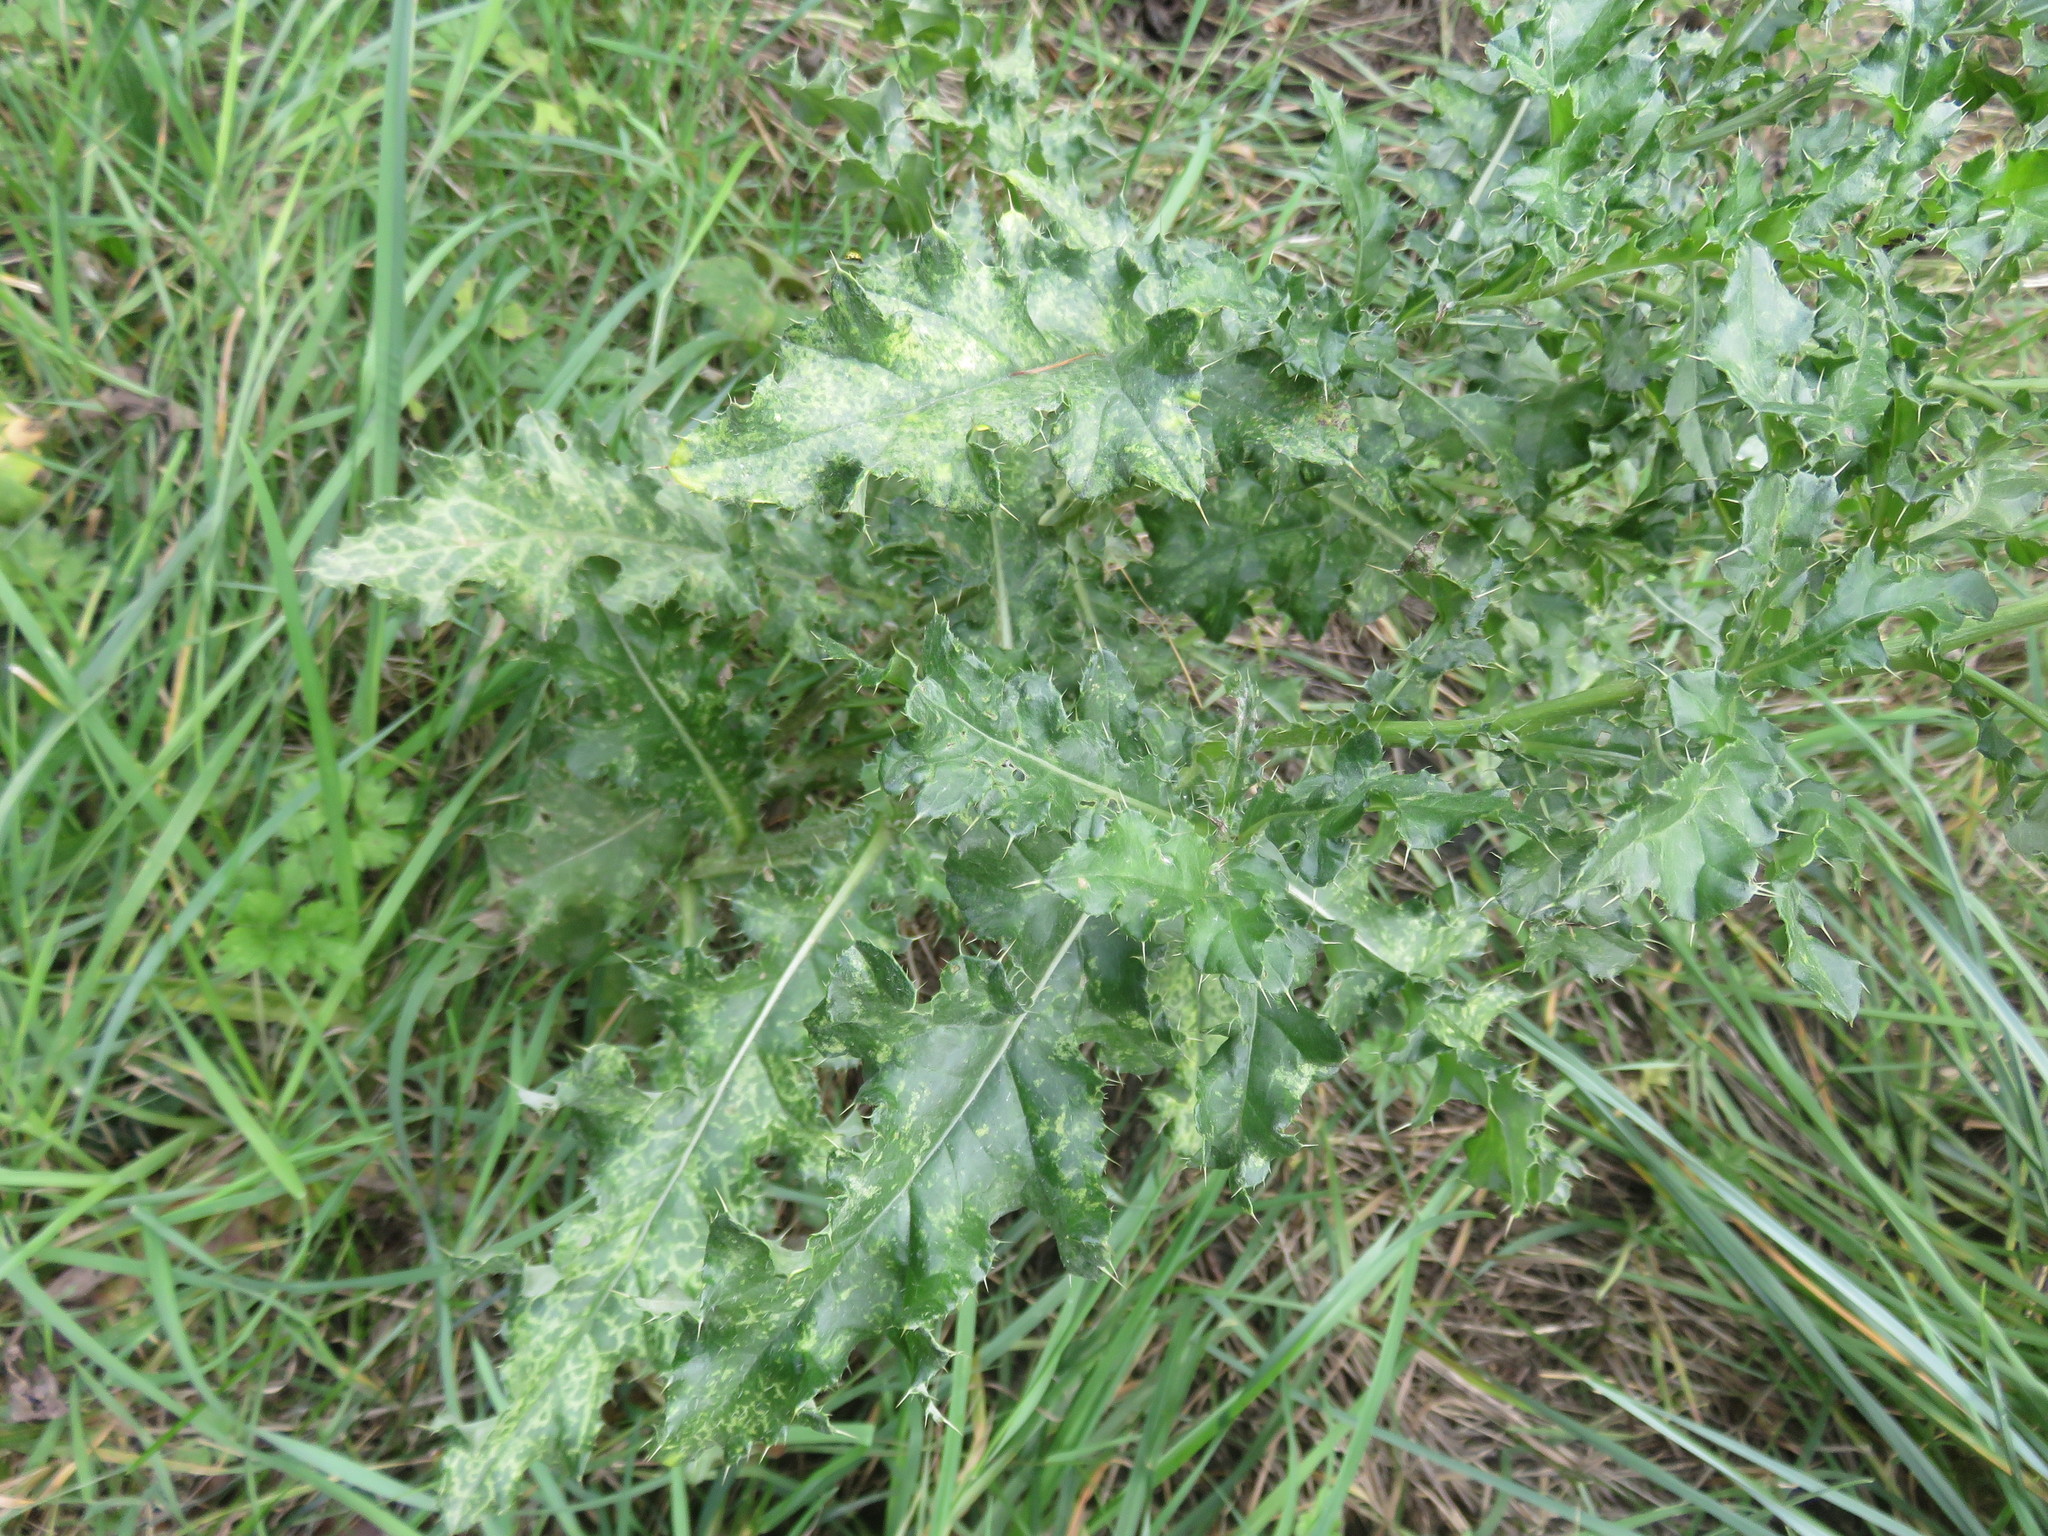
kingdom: Plantae
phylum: Tracheophyta
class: Magnoliopsida
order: Asterales
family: Asteraceae
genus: Cirsium
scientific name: Cirsium arvense
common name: Creeping thistle
